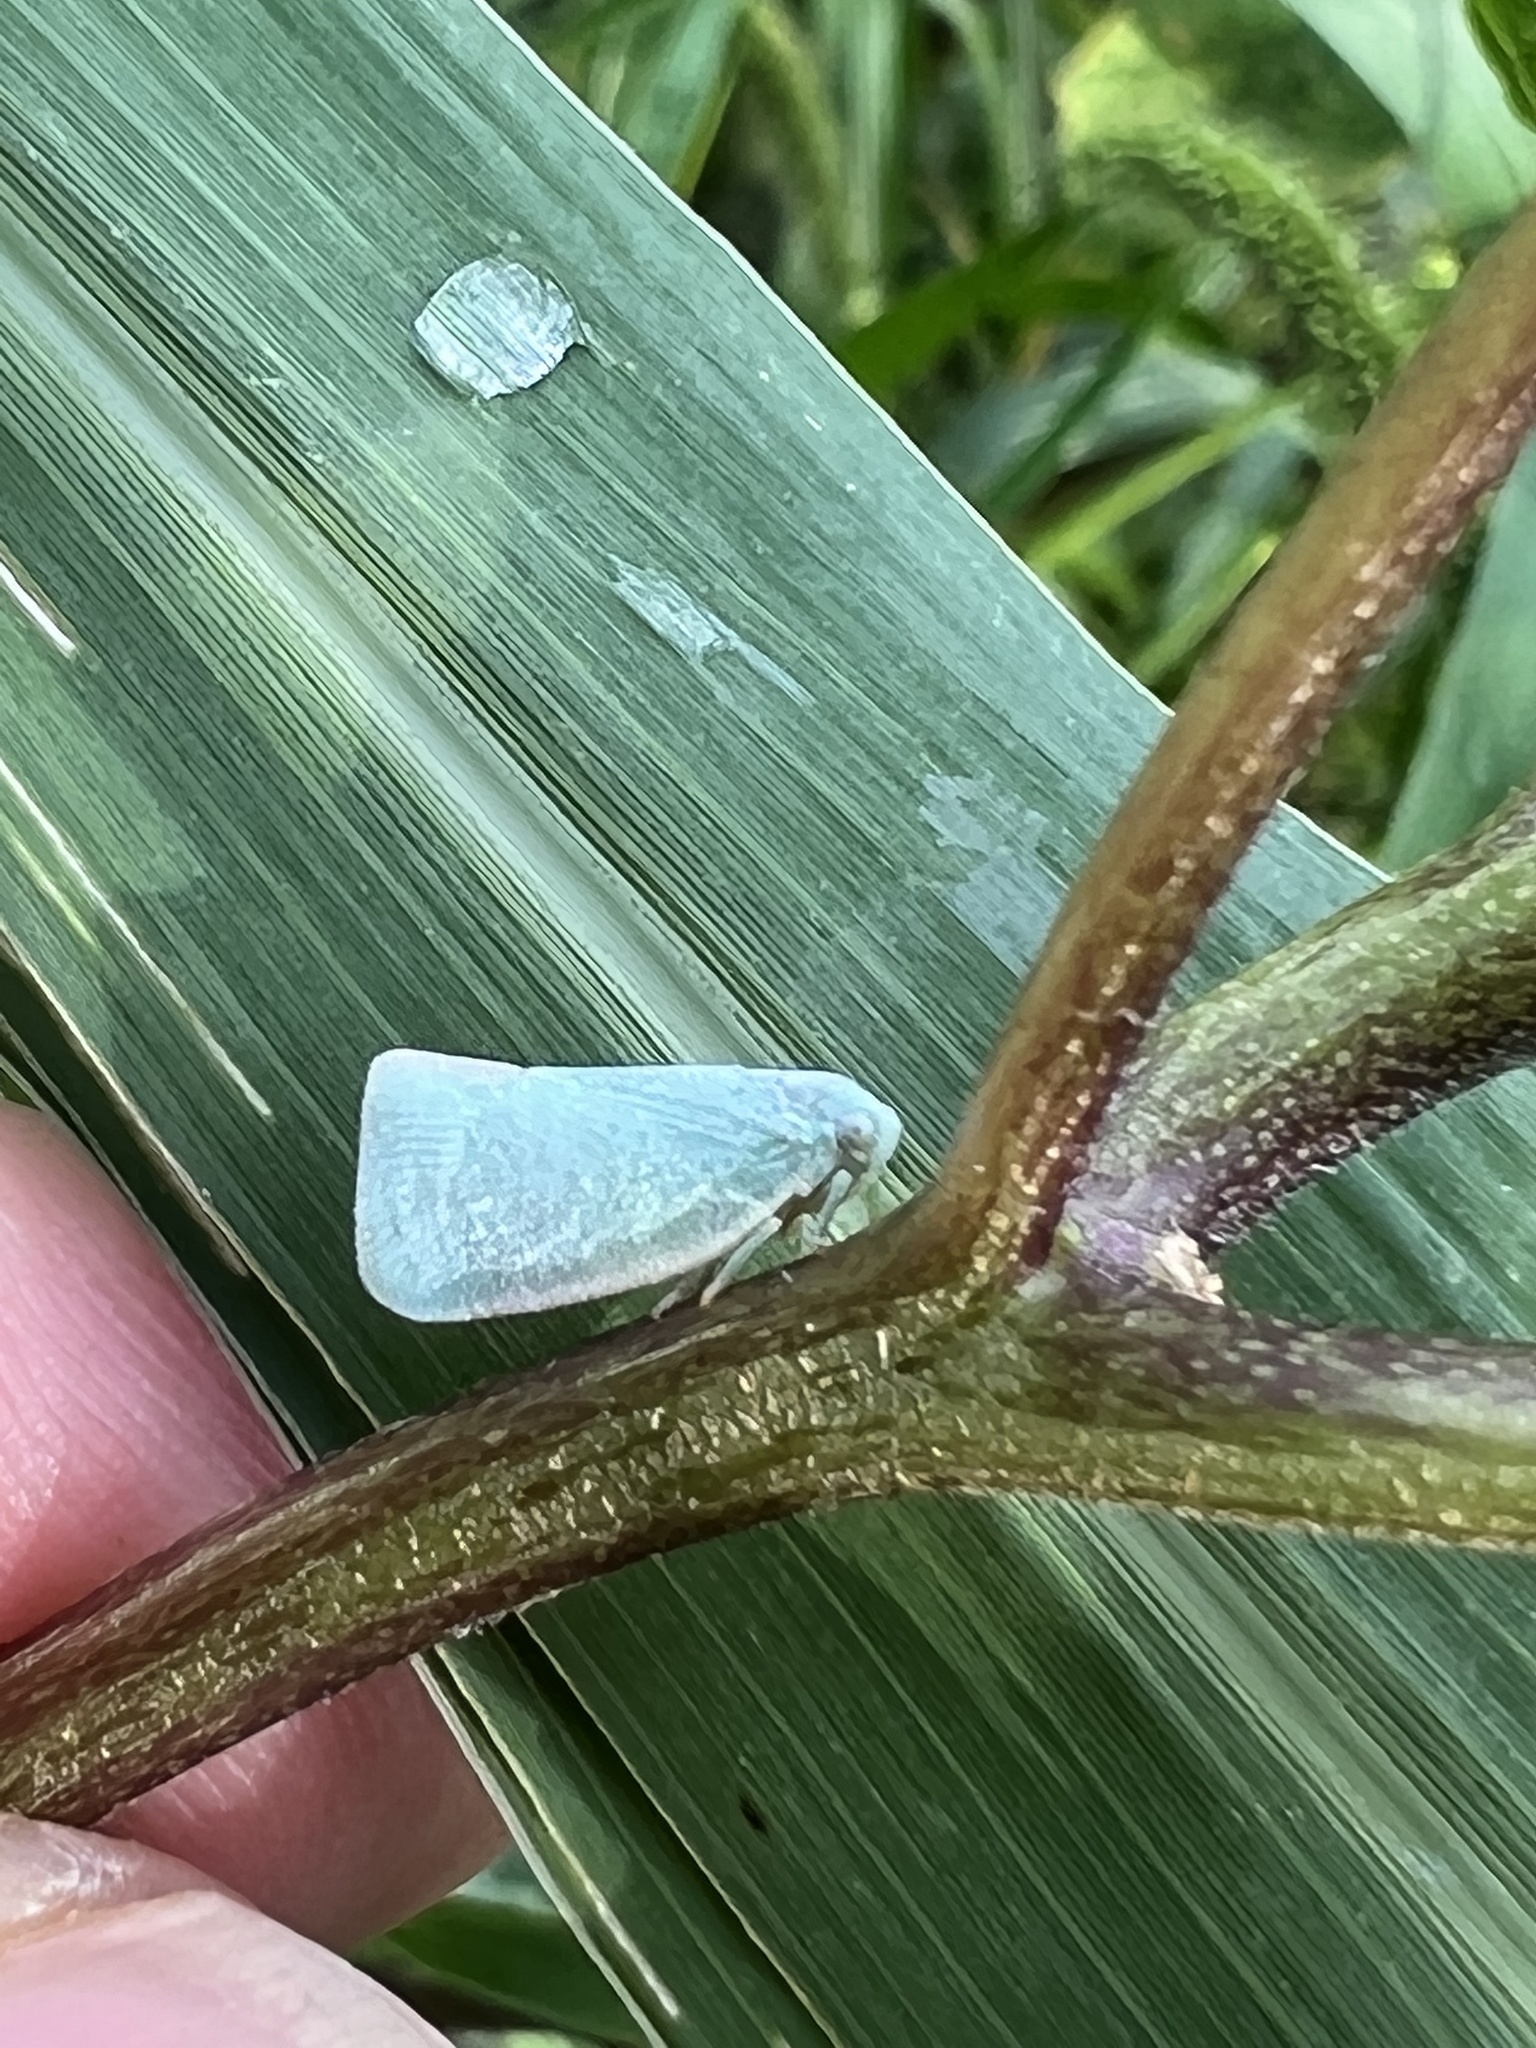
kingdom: Animalia
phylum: Arthropoda
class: Insecta
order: Hemiptera
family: Flatidae
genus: Flatormenis
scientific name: Flatormenis proxima
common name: Northern flatid planthopper
